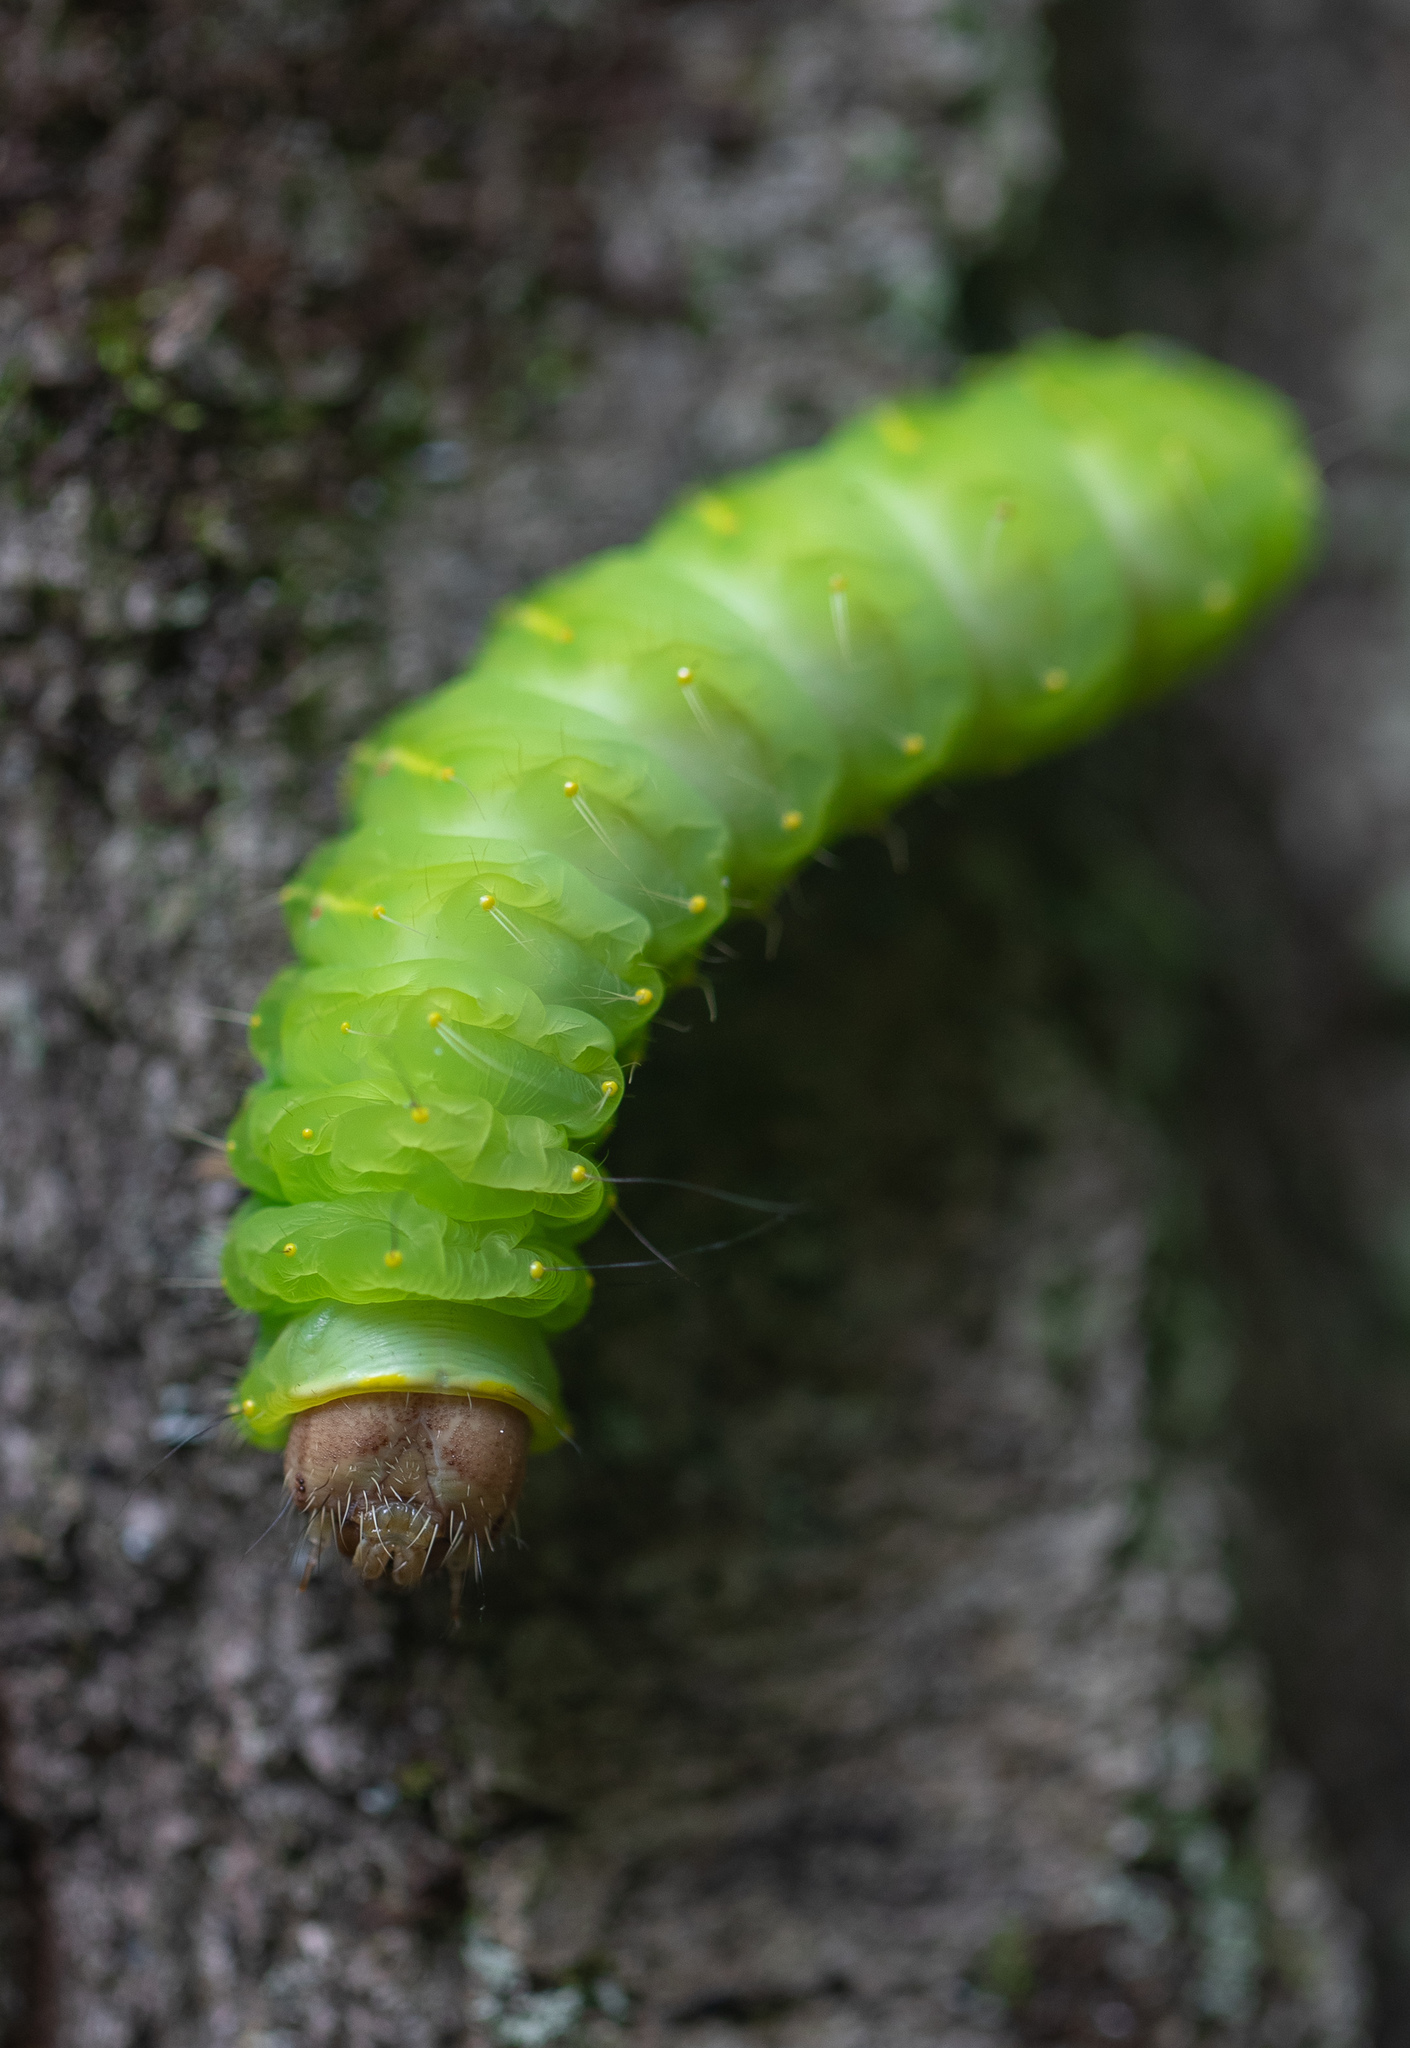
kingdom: Animalia
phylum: Arthropoda
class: Insecta
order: Lepidoptera
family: Saturniidae
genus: Antheraea
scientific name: Antheraea polyphemus
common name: Polyphemus moth
